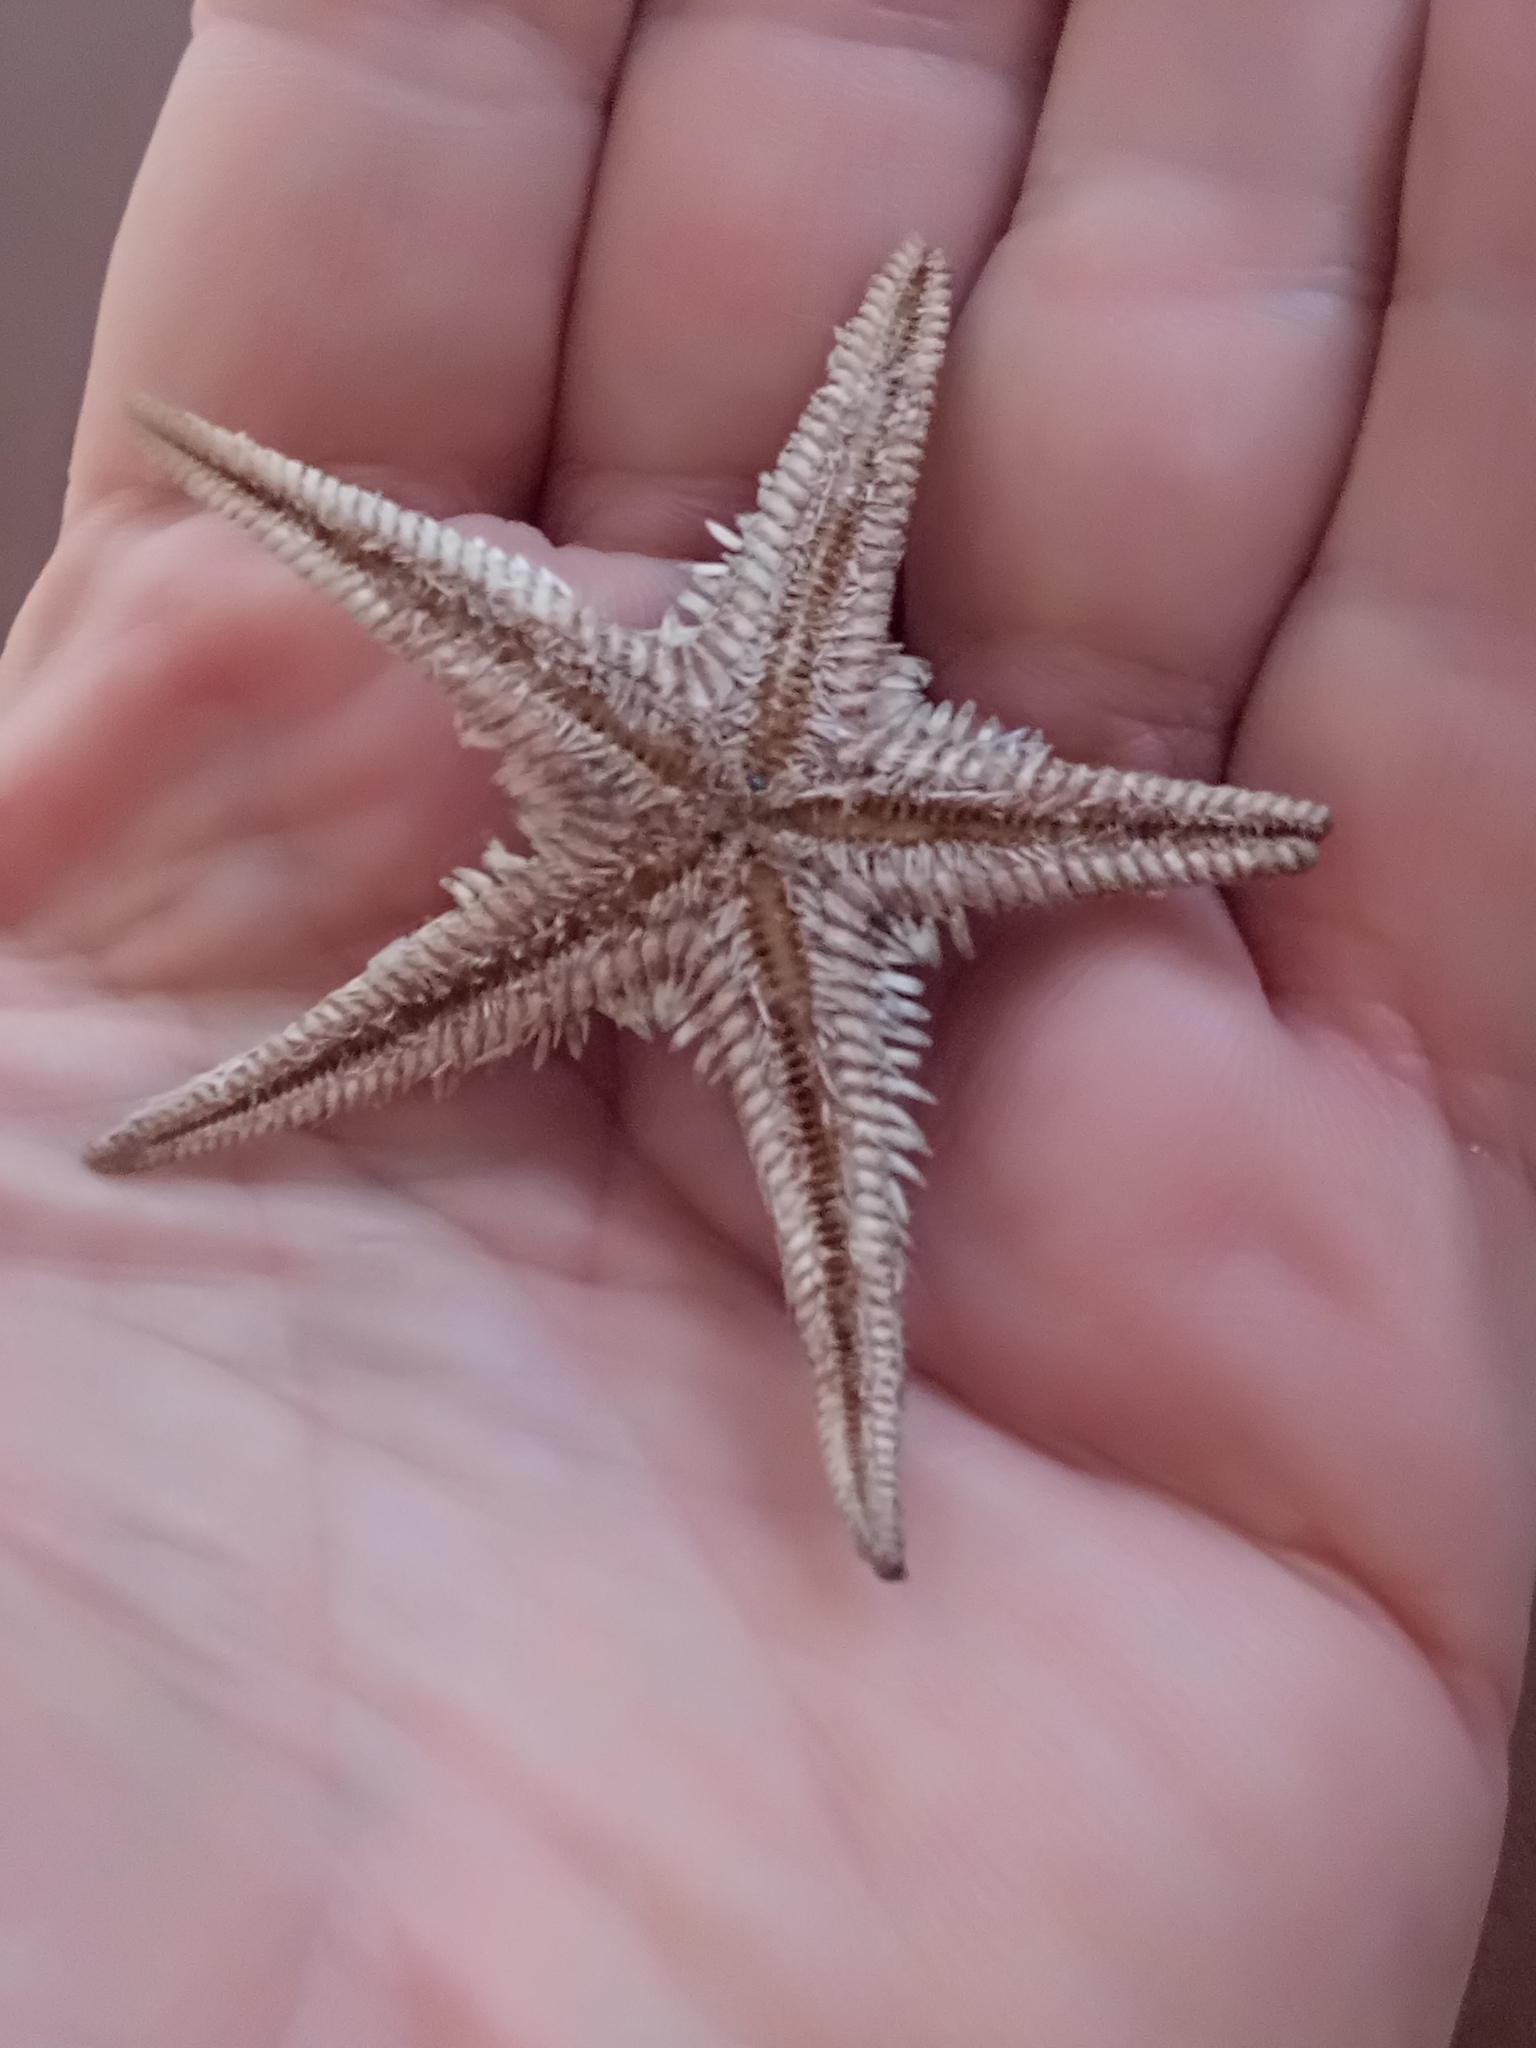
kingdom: Animalia
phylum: Echinodermata
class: Asteroidea
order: Paxillosida
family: Astropectinidae
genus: Astropecten
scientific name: Astropecten bispinosus
